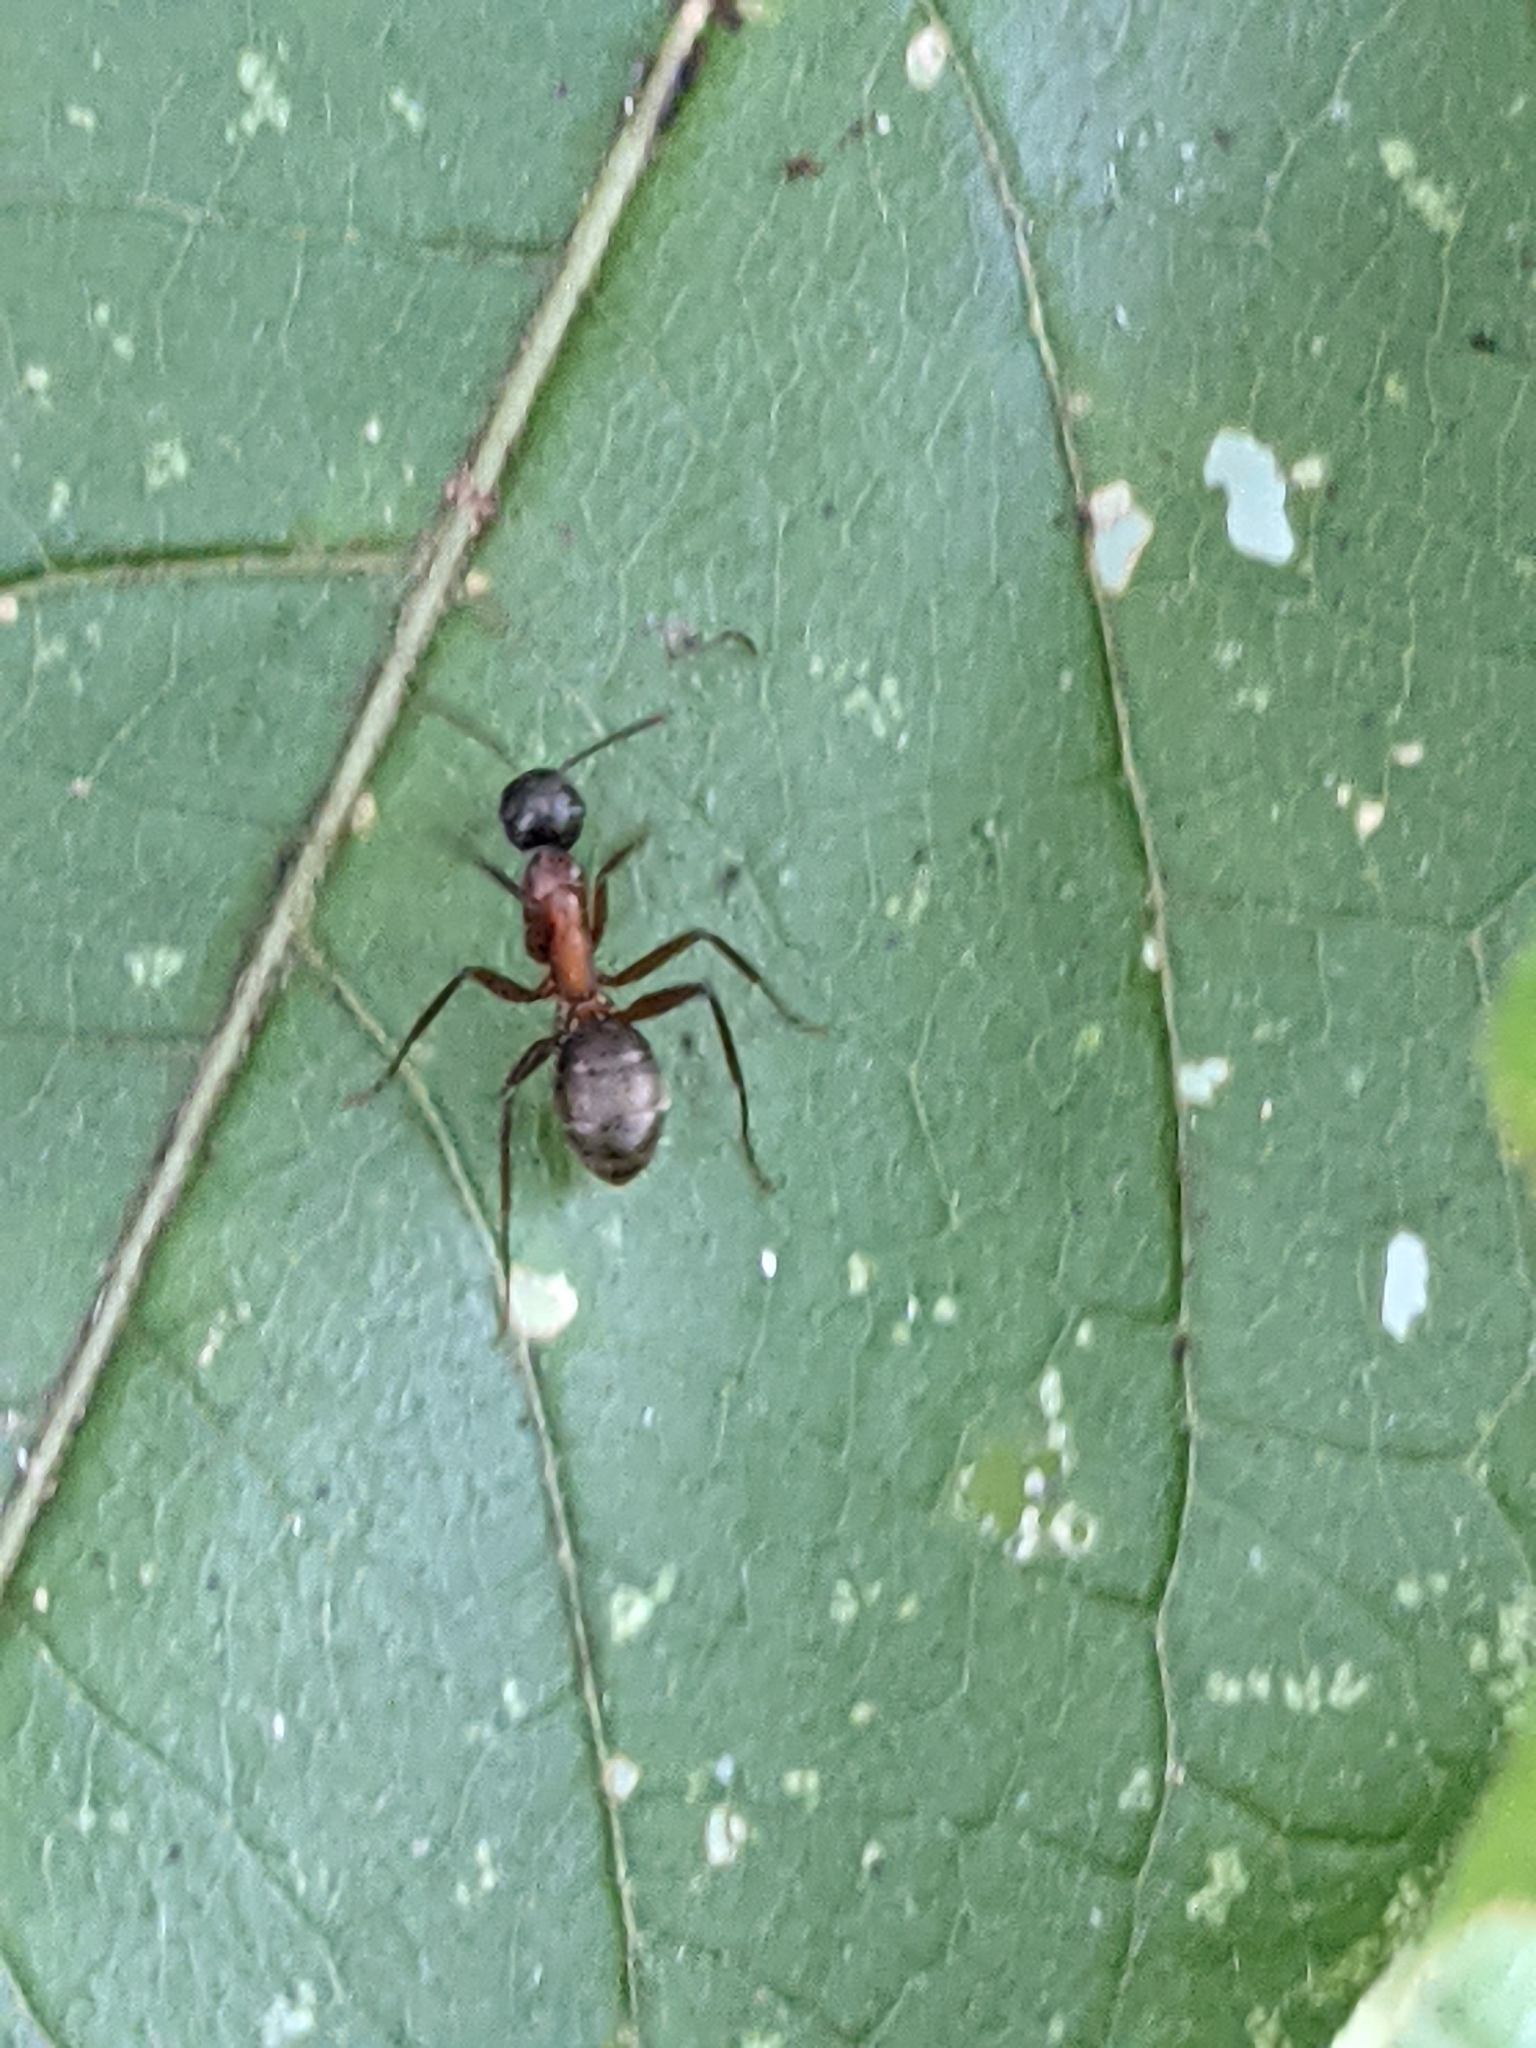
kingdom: Animalia
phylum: Arthropoda
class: Insecta
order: Hymenoptera
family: Formicidae
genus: Camponotus
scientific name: Camponotus chromaiodes
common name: Red carpenter ant
